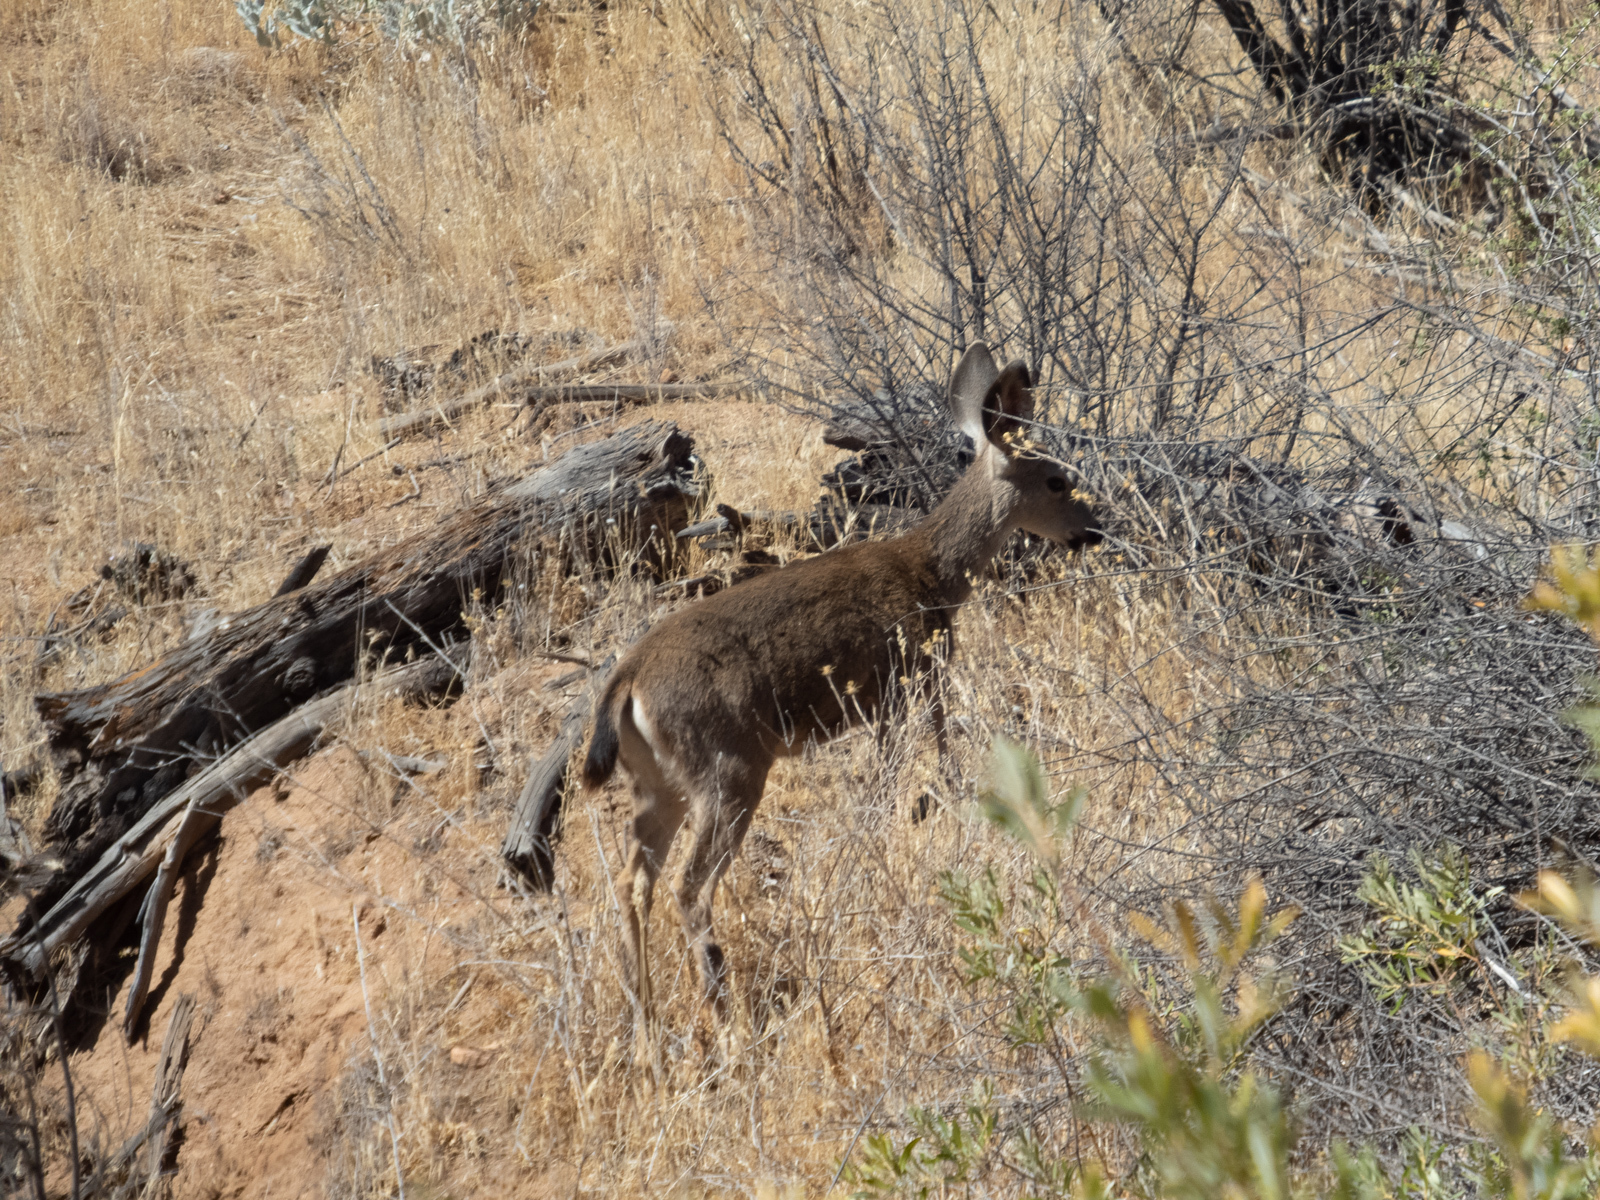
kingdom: Animalia
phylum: Chordata
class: Mammalia
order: Artiodactyla
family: Cervidae
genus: Odocoileus
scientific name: Odocoileus hemionus
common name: Mule deer
